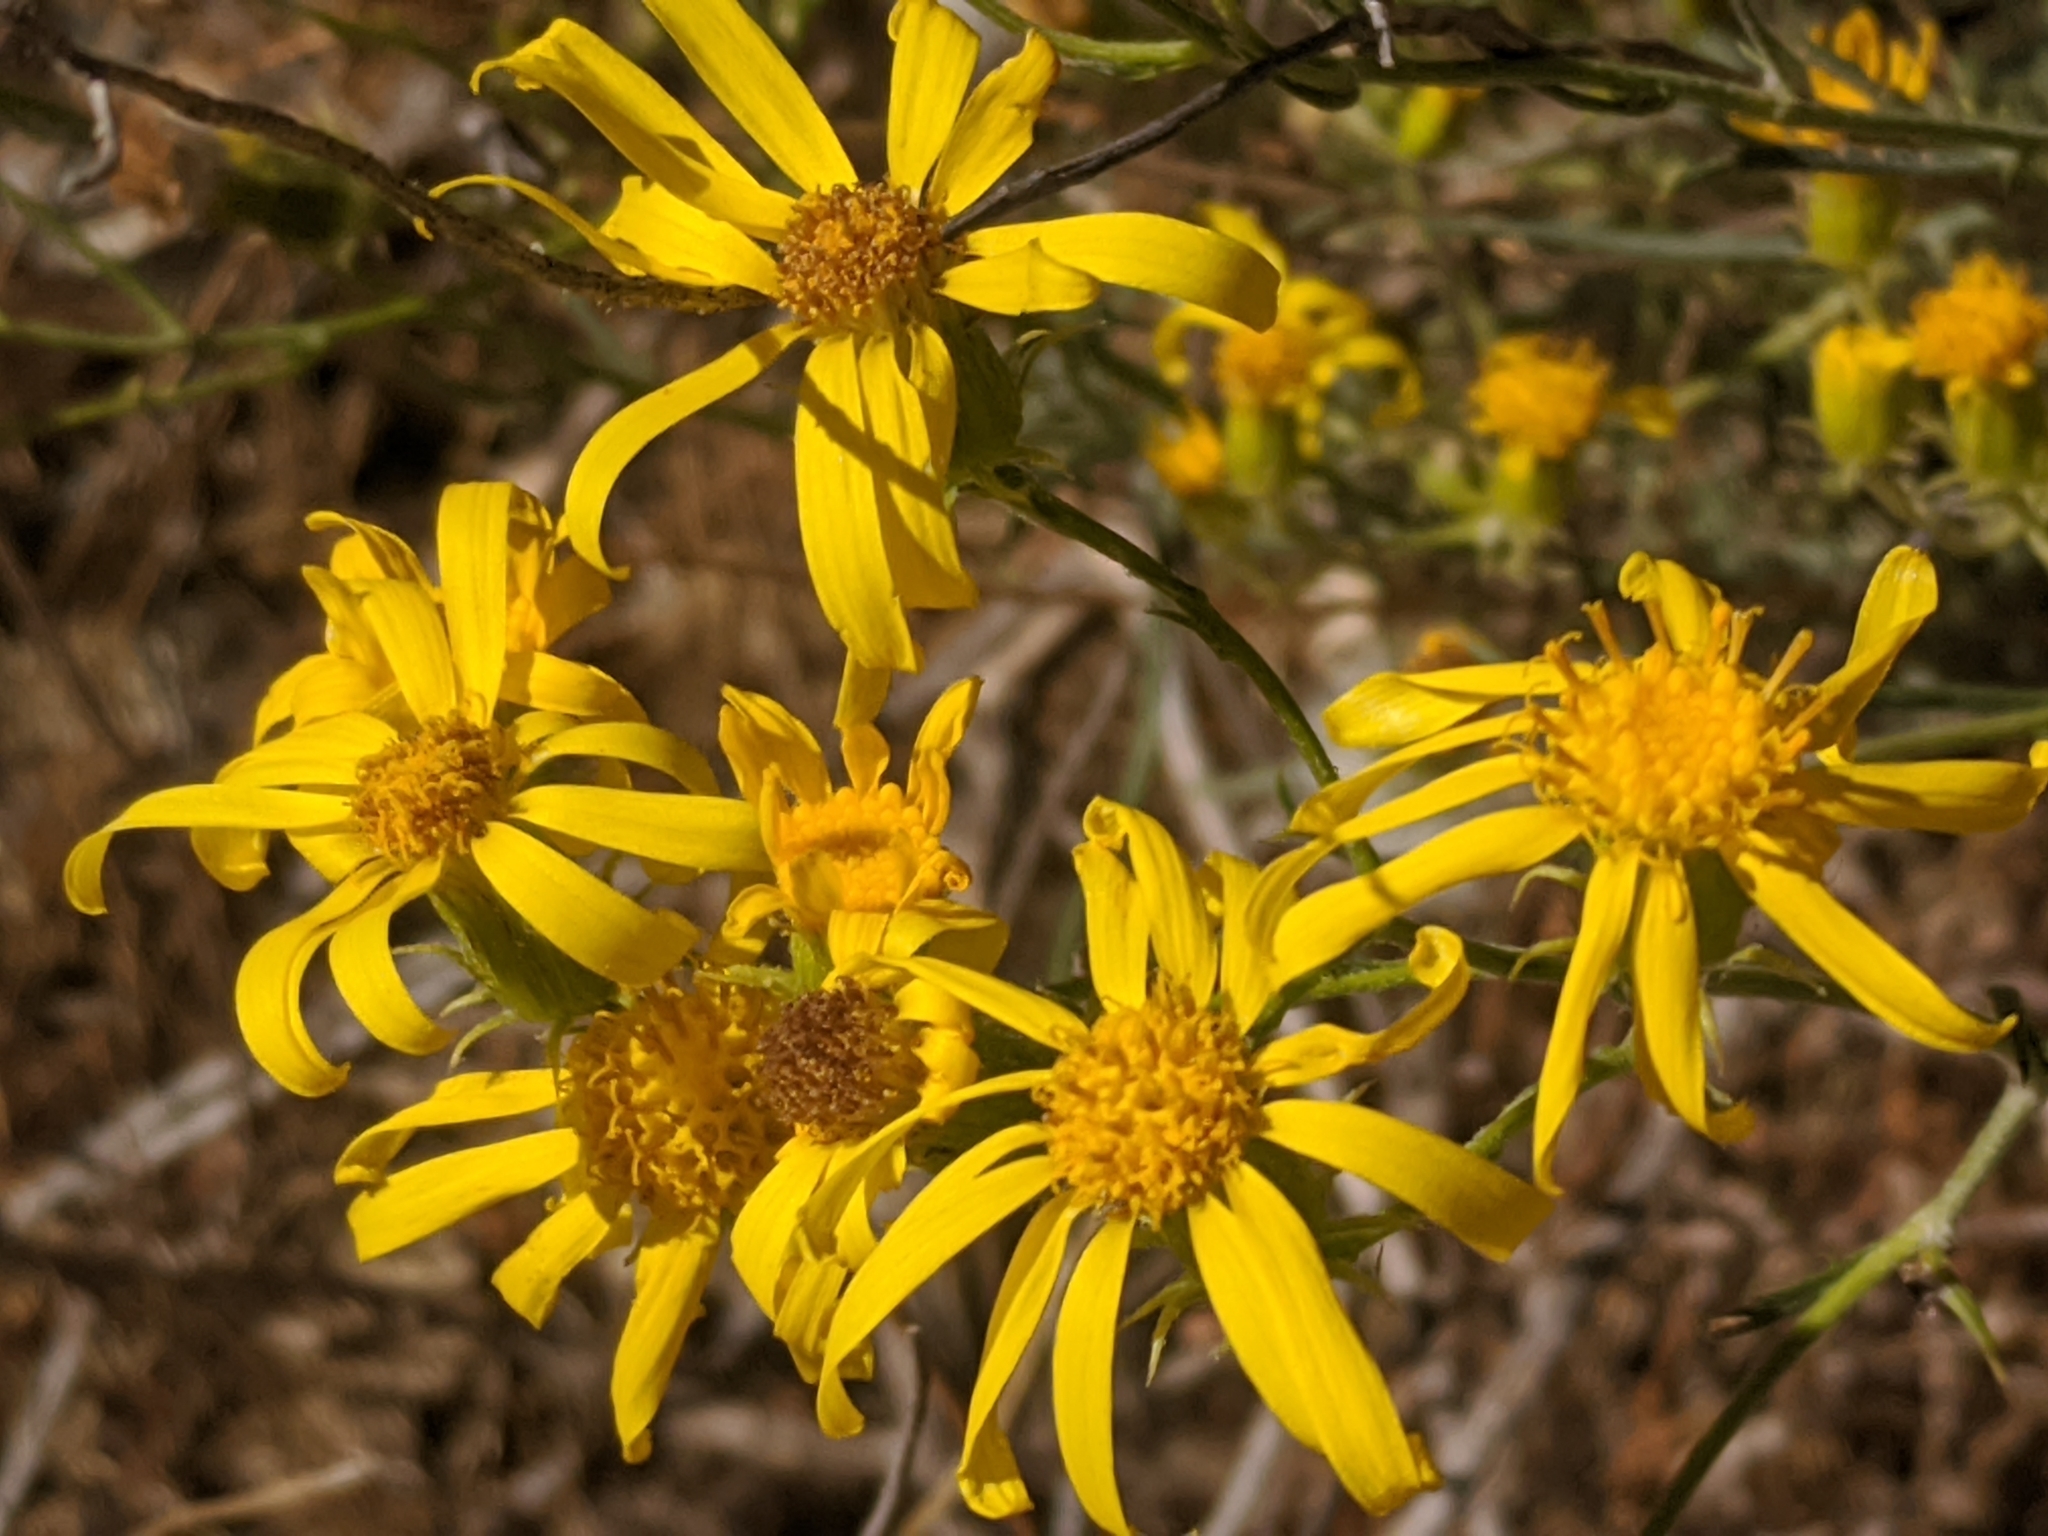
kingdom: Plantae
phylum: Tracheophyta
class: Magnoliopsida
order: Asterales
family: Asteraceae
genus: Senecio
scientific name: Senecio flaccidus
